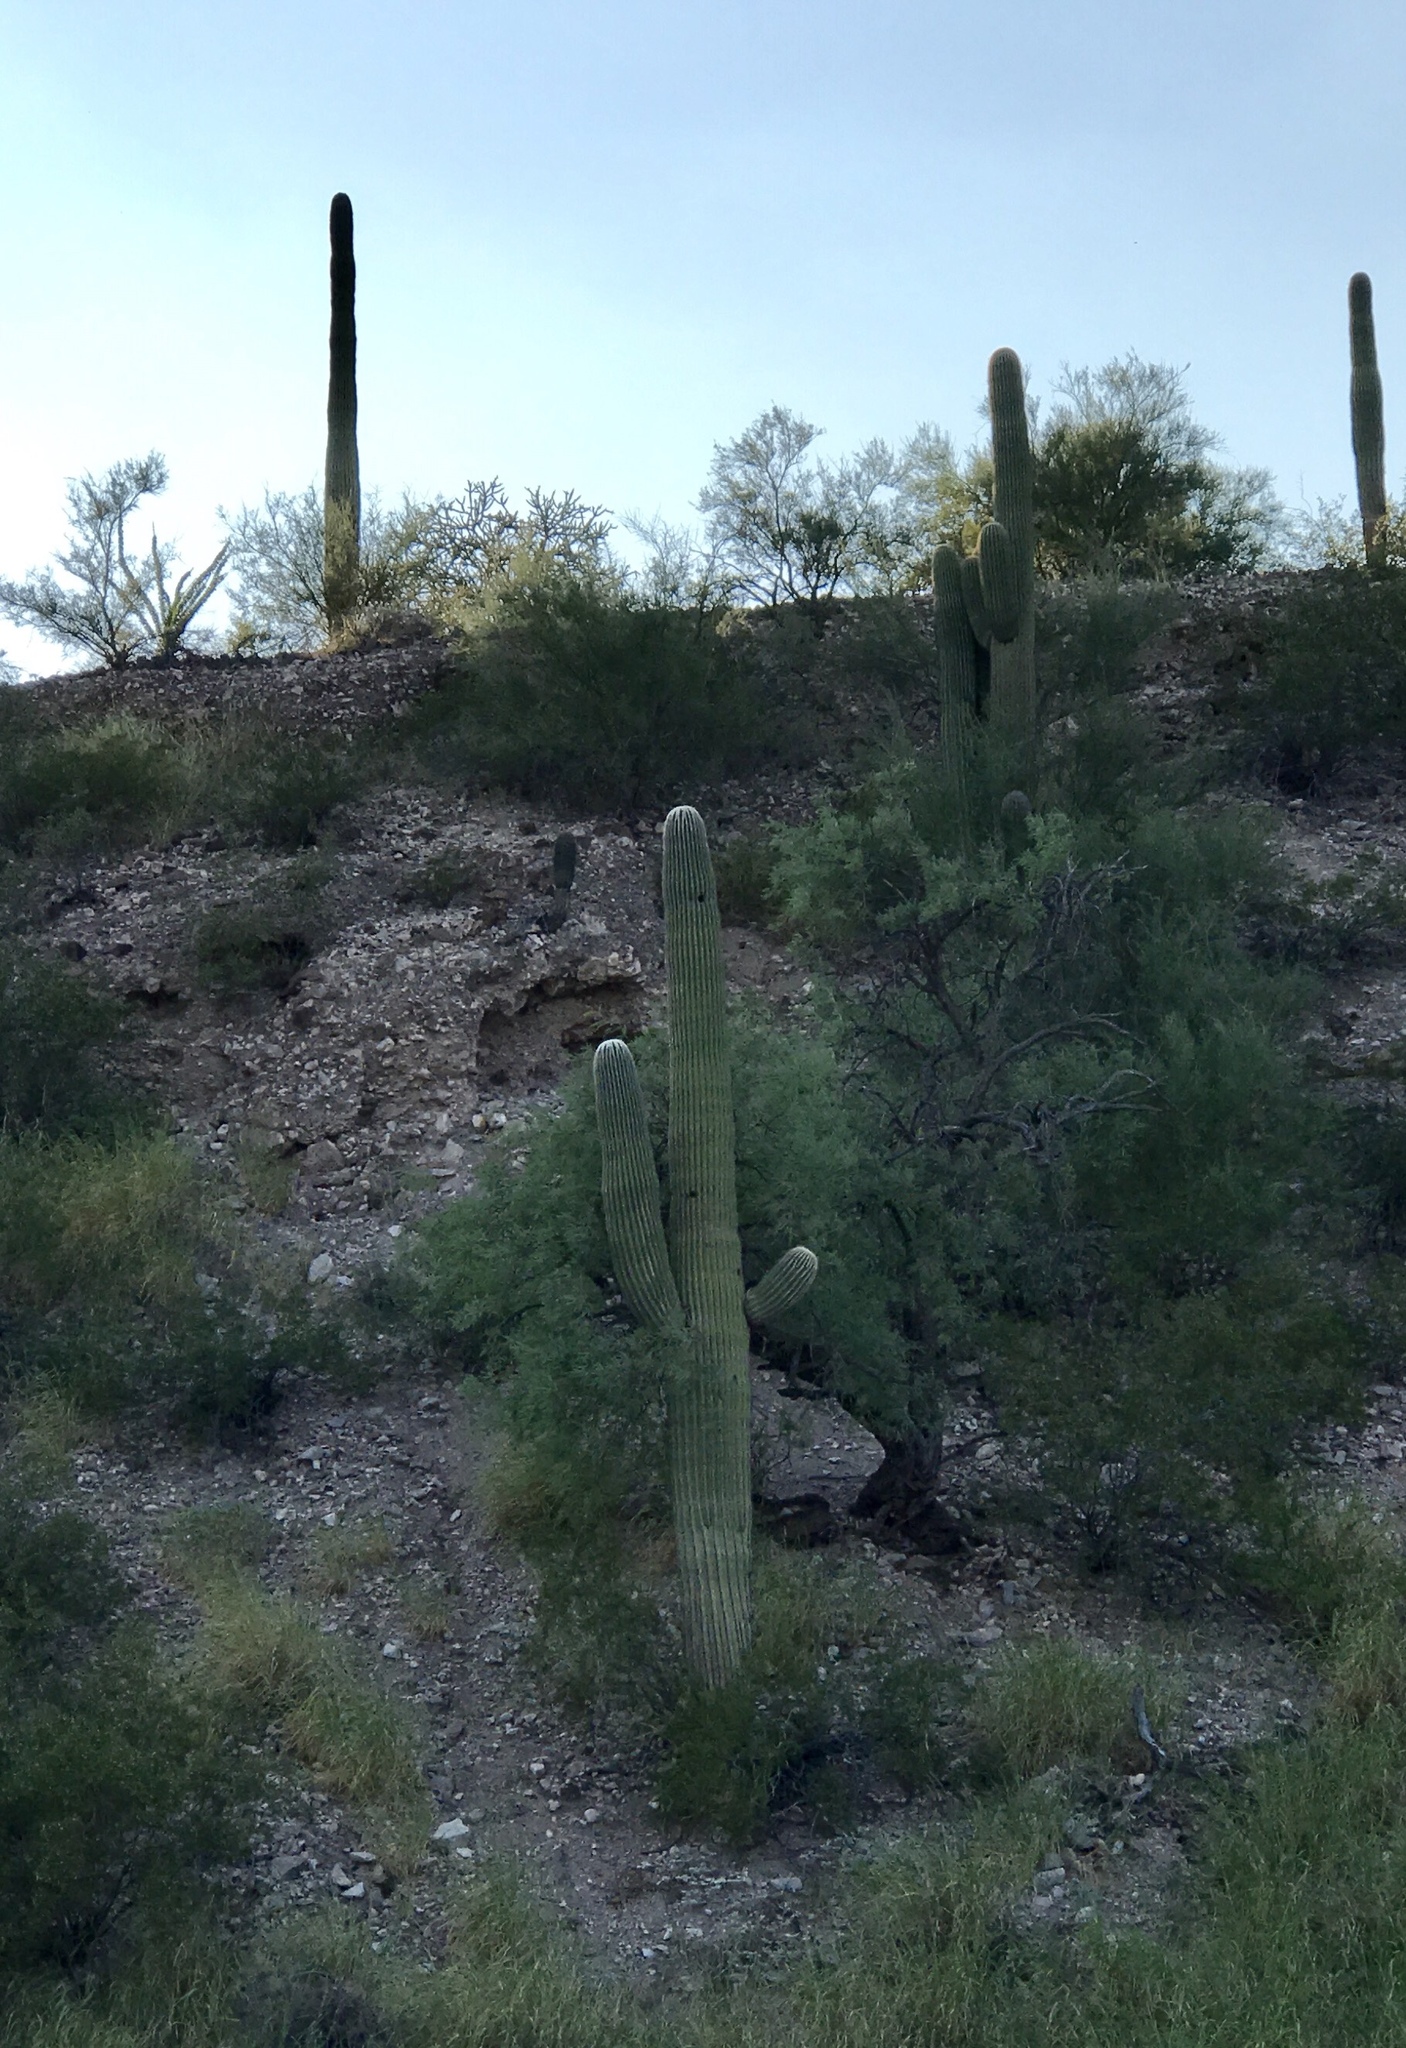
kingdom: Plantae
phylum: Tracheophyta
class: Magnoliopsida
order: Caryophyllales
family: Cactaceae
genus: Carnegiea
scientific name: Carnegiea gigantea
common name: Saguaro
